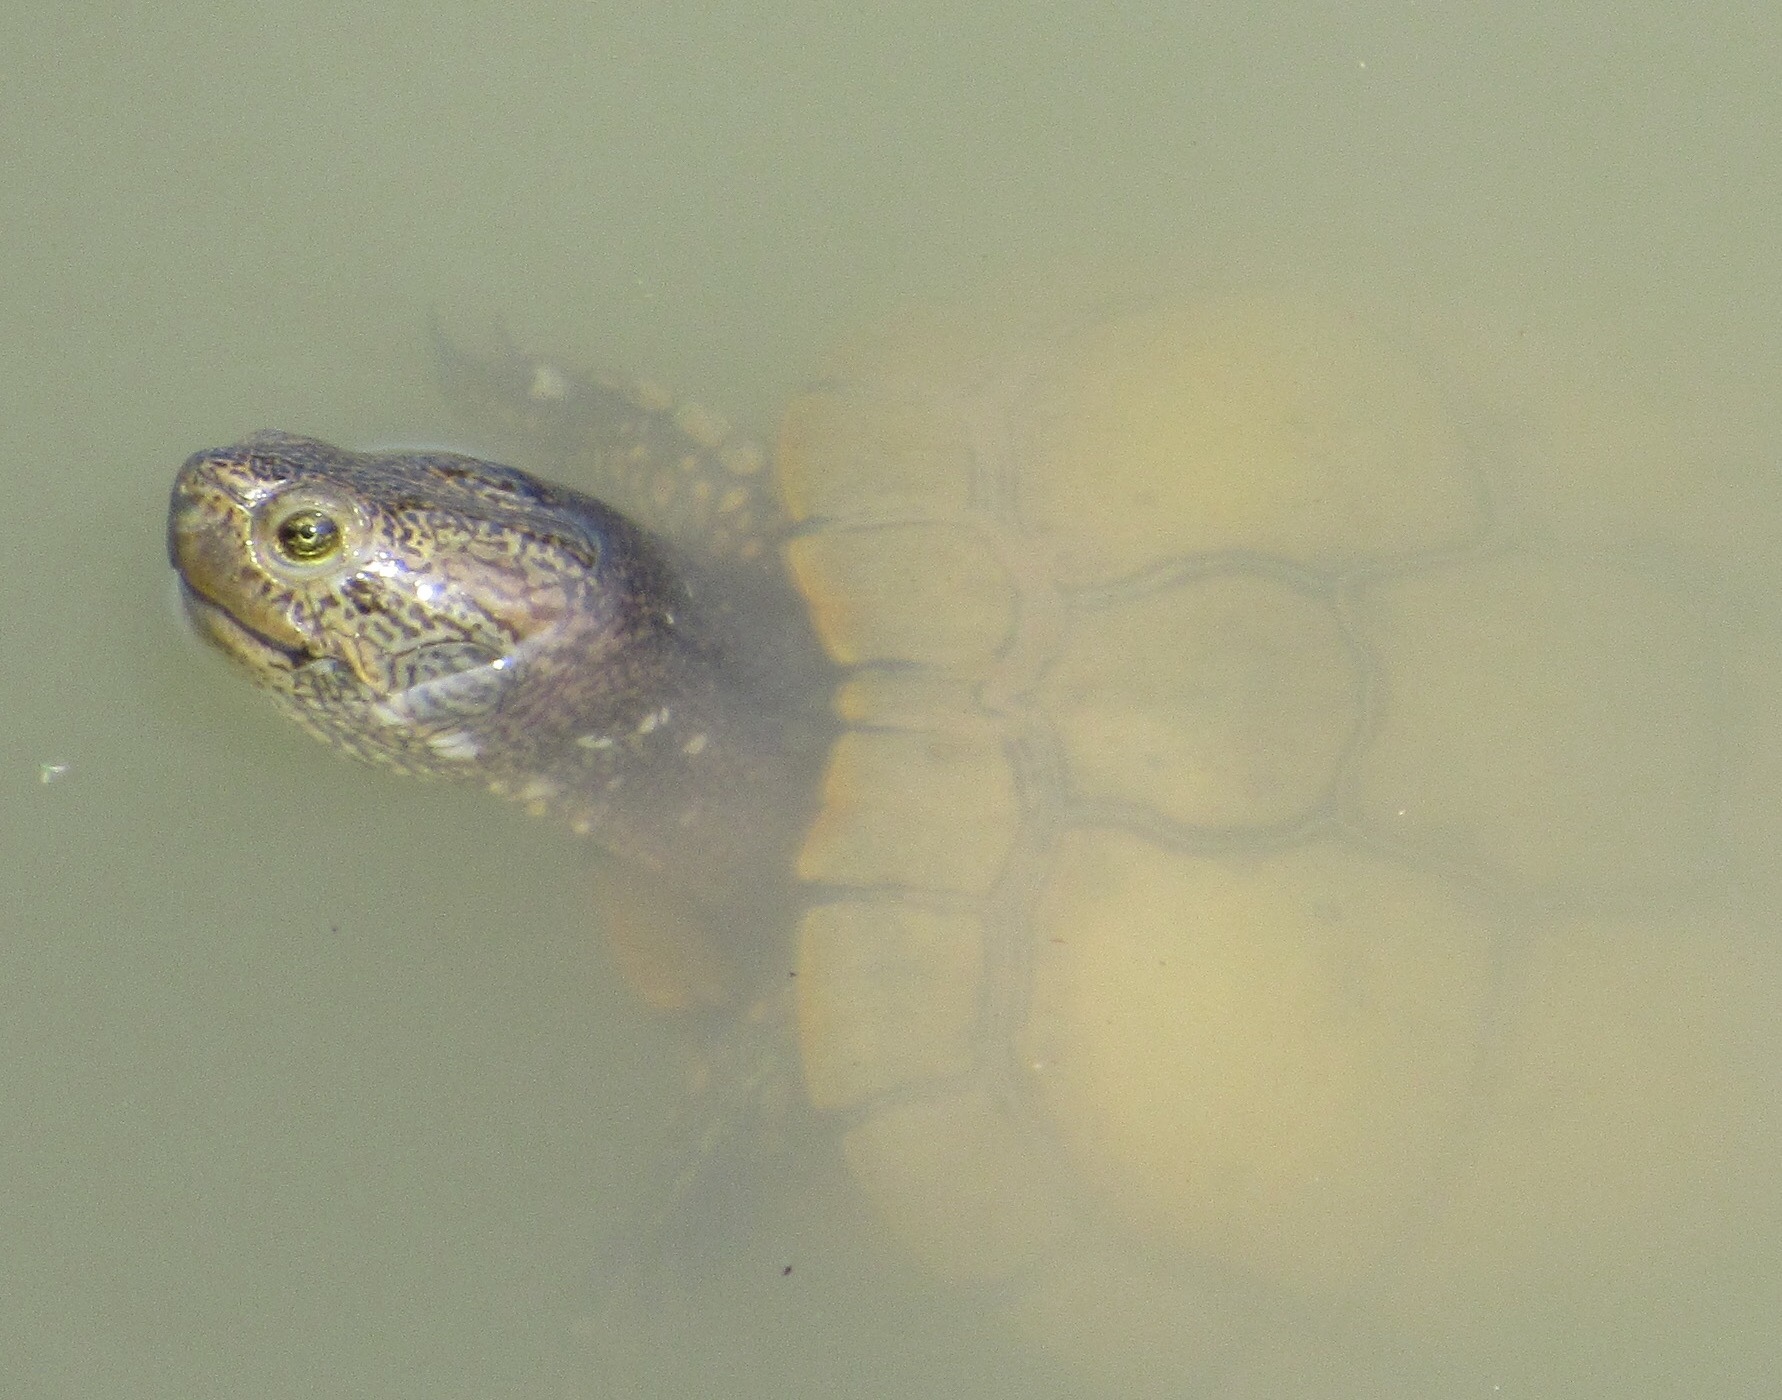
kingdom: Animalia
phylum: Chordata
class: Testudines
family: Emydidae
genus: Trachemys
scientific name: Trachemys scripta
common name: Slider
